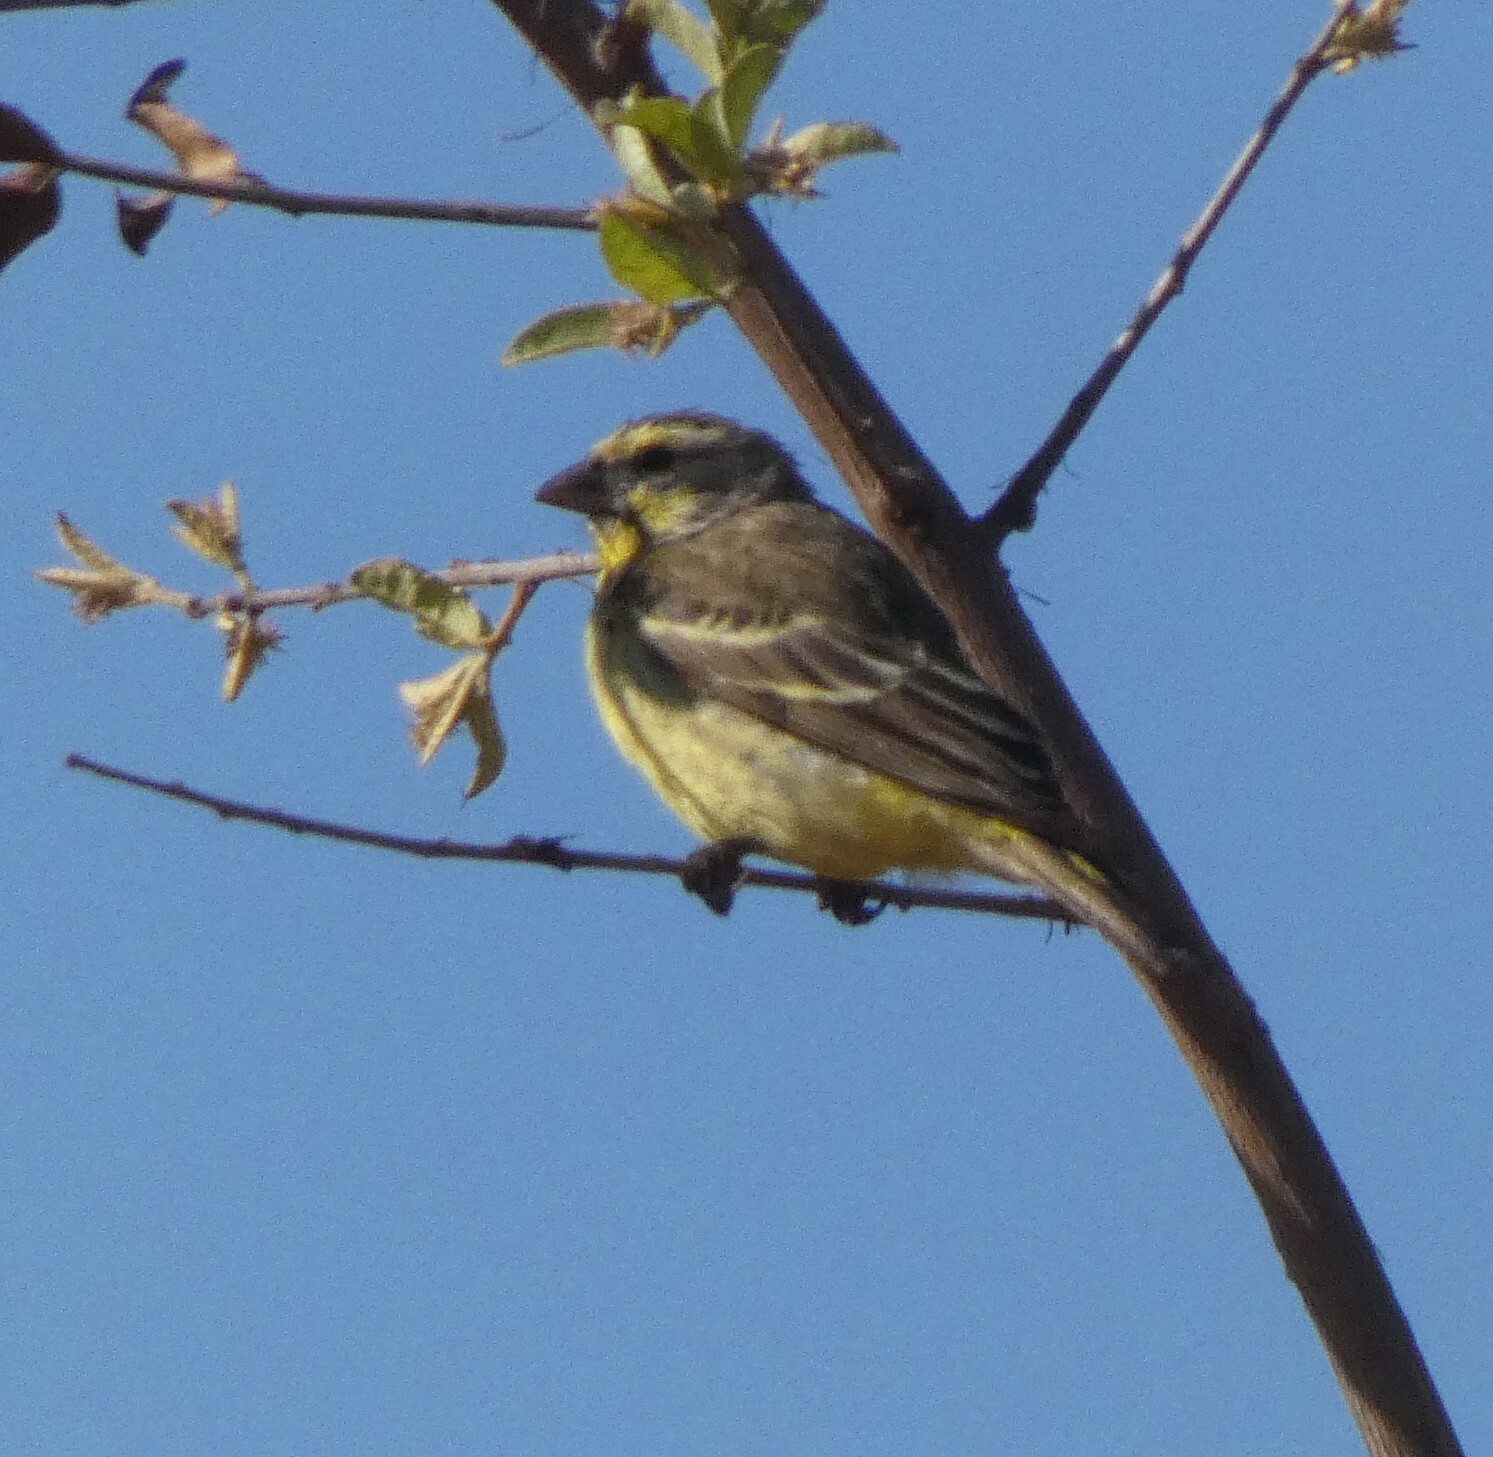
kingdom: Animalia
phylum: Chordata
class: Aves
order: Passeriformes
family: Fringillidae
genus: Crithagra
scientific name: Crithagra mozambica
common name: Yellow-fronted canary
